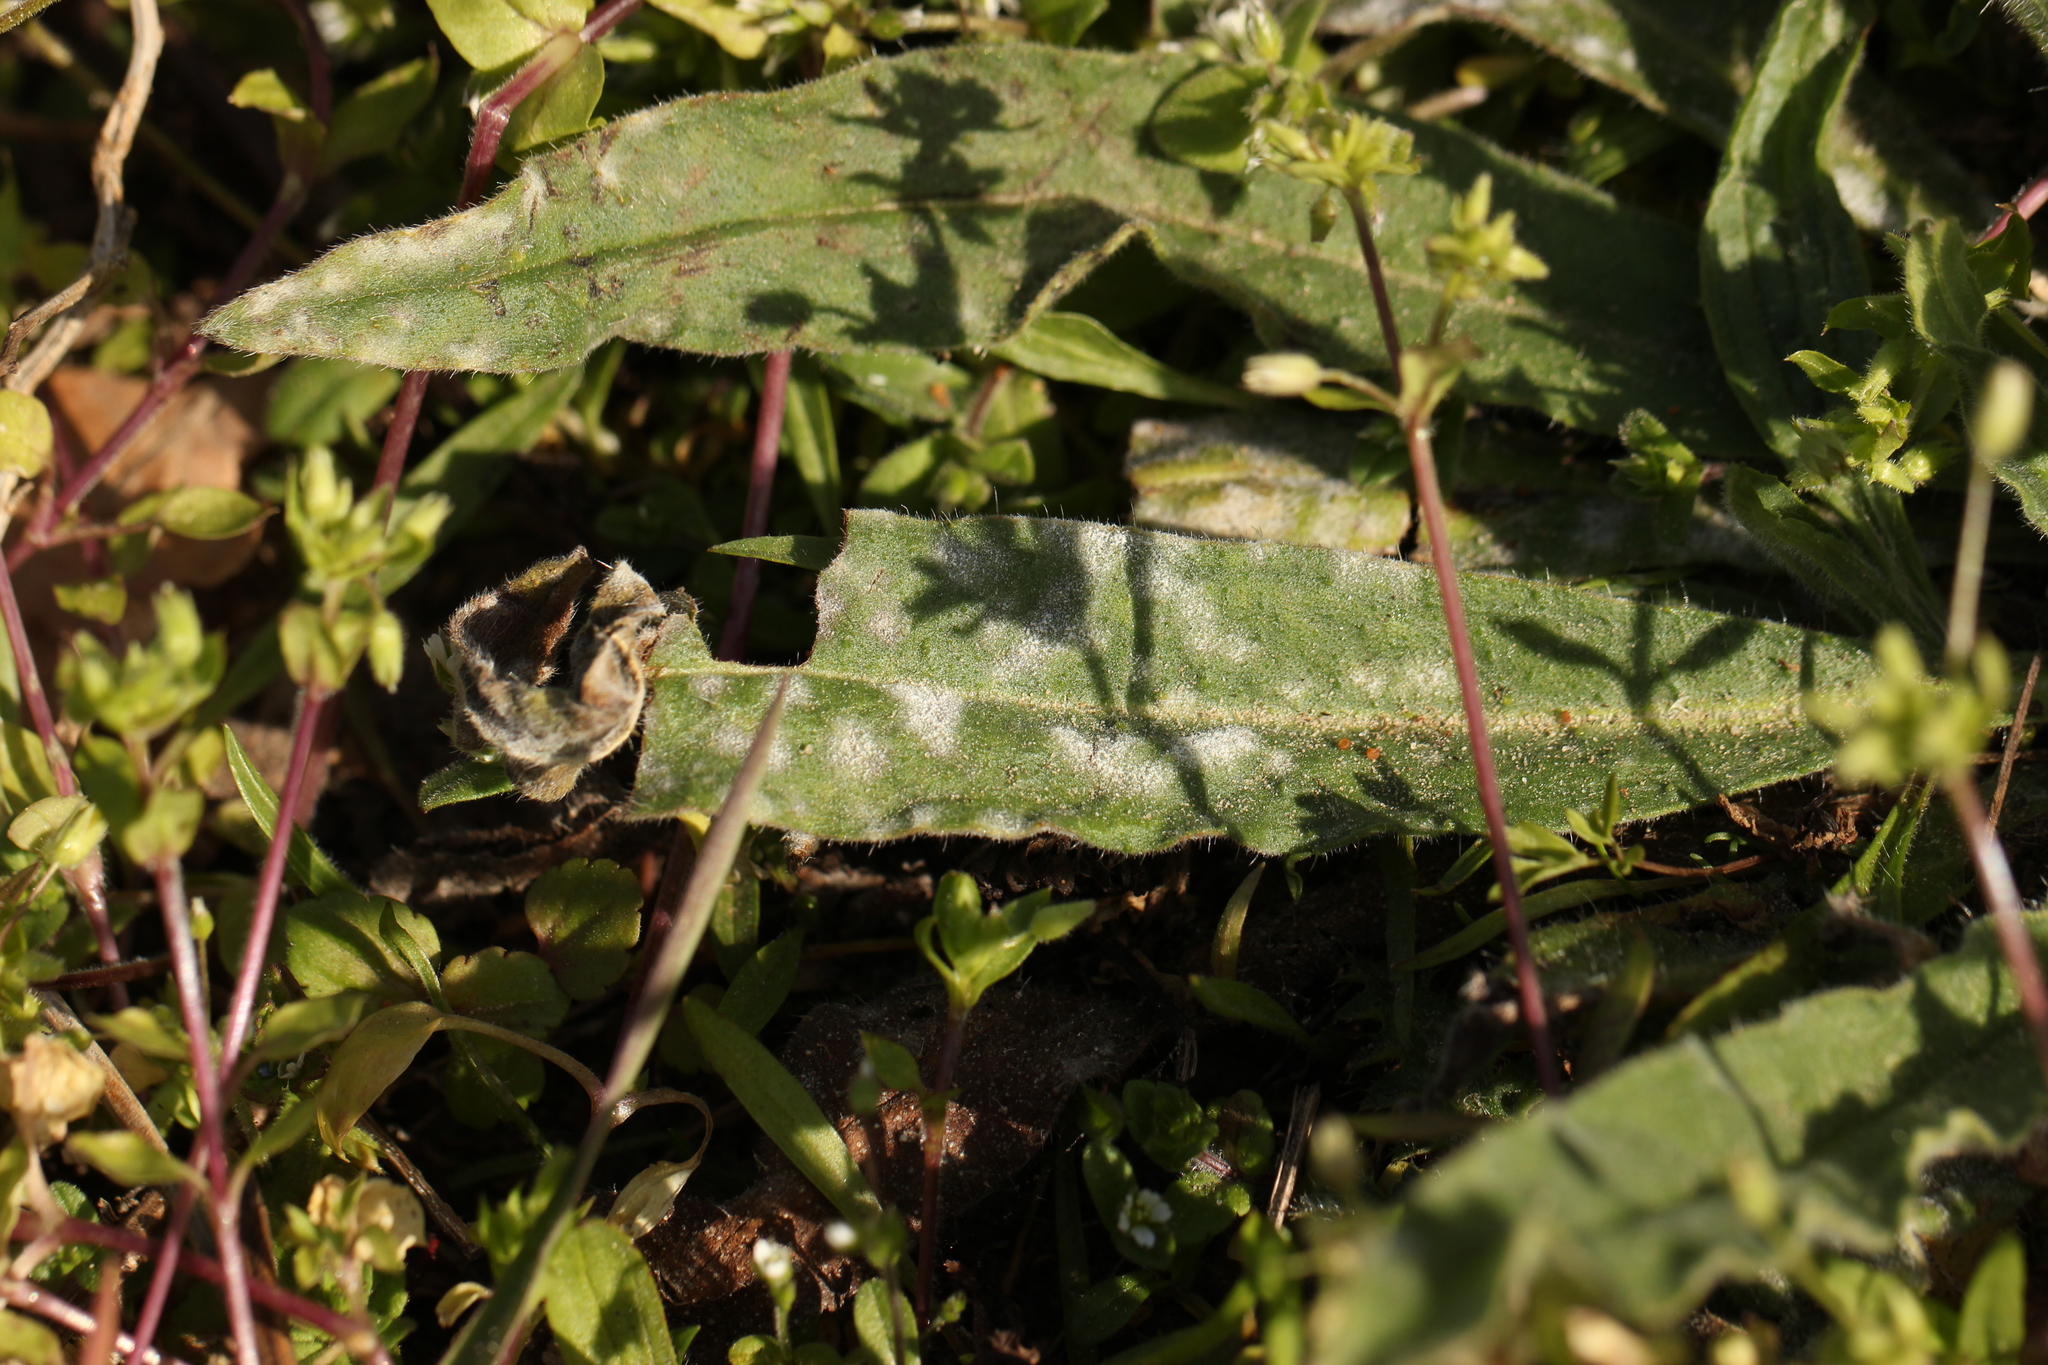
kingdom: Fungi
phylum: Ascomycota
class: Leotiomycetes
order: Helotiales
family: Erysiphaceae
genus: Golovinomyces
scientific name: Golovinomyces asperifolii
